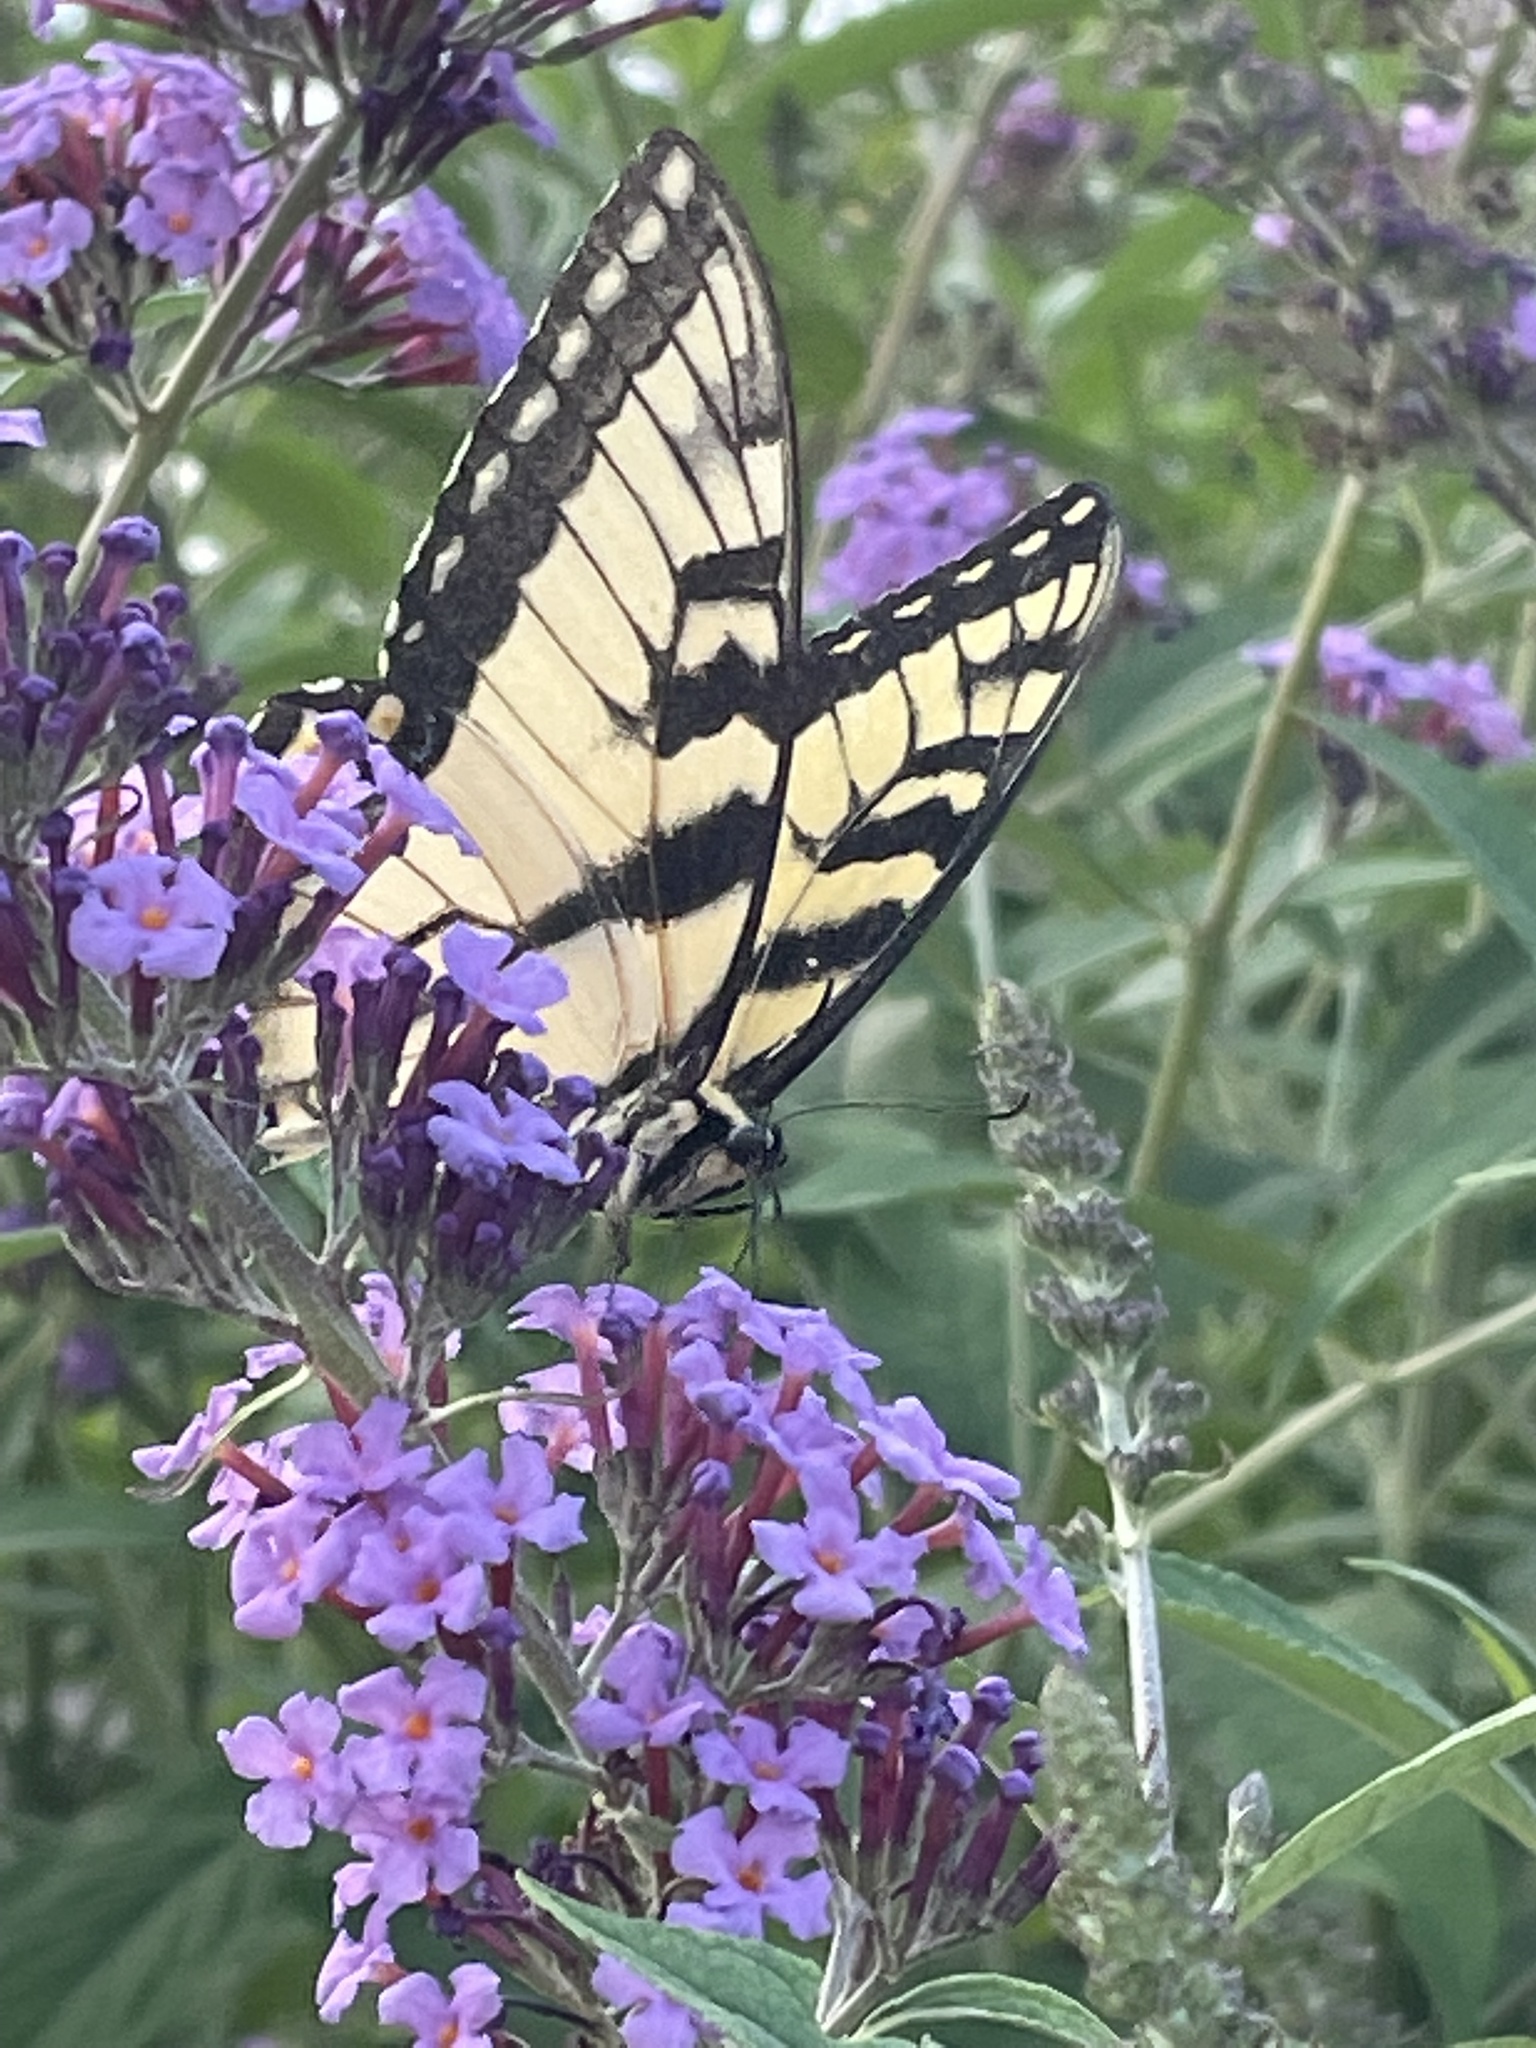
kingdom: Animalia
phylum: Arthropoda
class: Insecta
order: Lepidoptera
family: Papilionidae
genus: Papilio
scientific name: Papilio glaucus
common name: Tiger swallowtail
